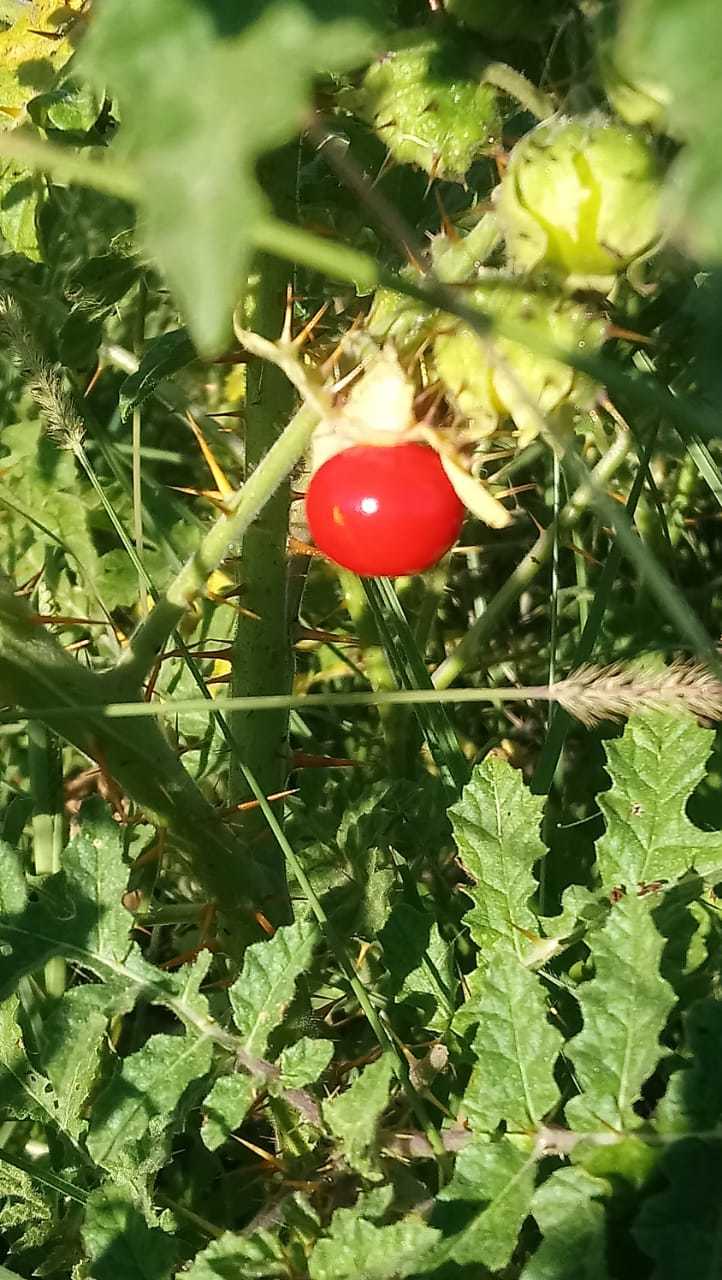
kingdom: Plantae
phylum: Tracheophyta
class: Magnoliopsida
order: Solanales
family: Solanaceae
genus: Solanum
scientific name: Solanum sisymbriifolium
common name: Red buffalo-bur
